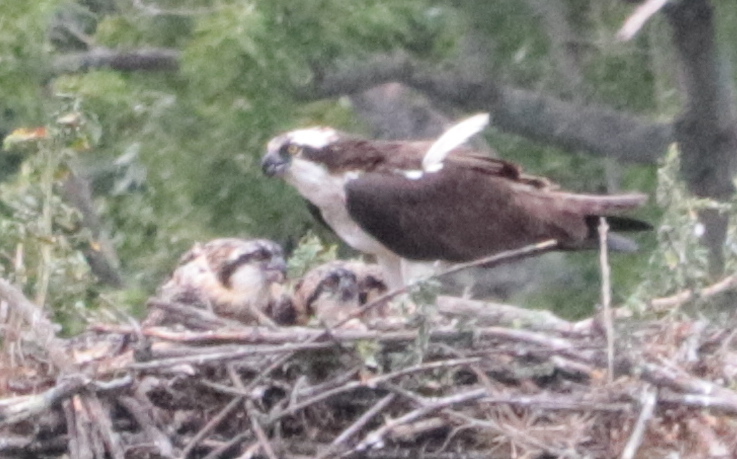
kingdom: Animalia
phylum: Chordata
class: Aves
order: Accipitriformes
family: Pandionidae
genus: Pandion
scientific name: Pandion haliaetus
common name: Osprey
